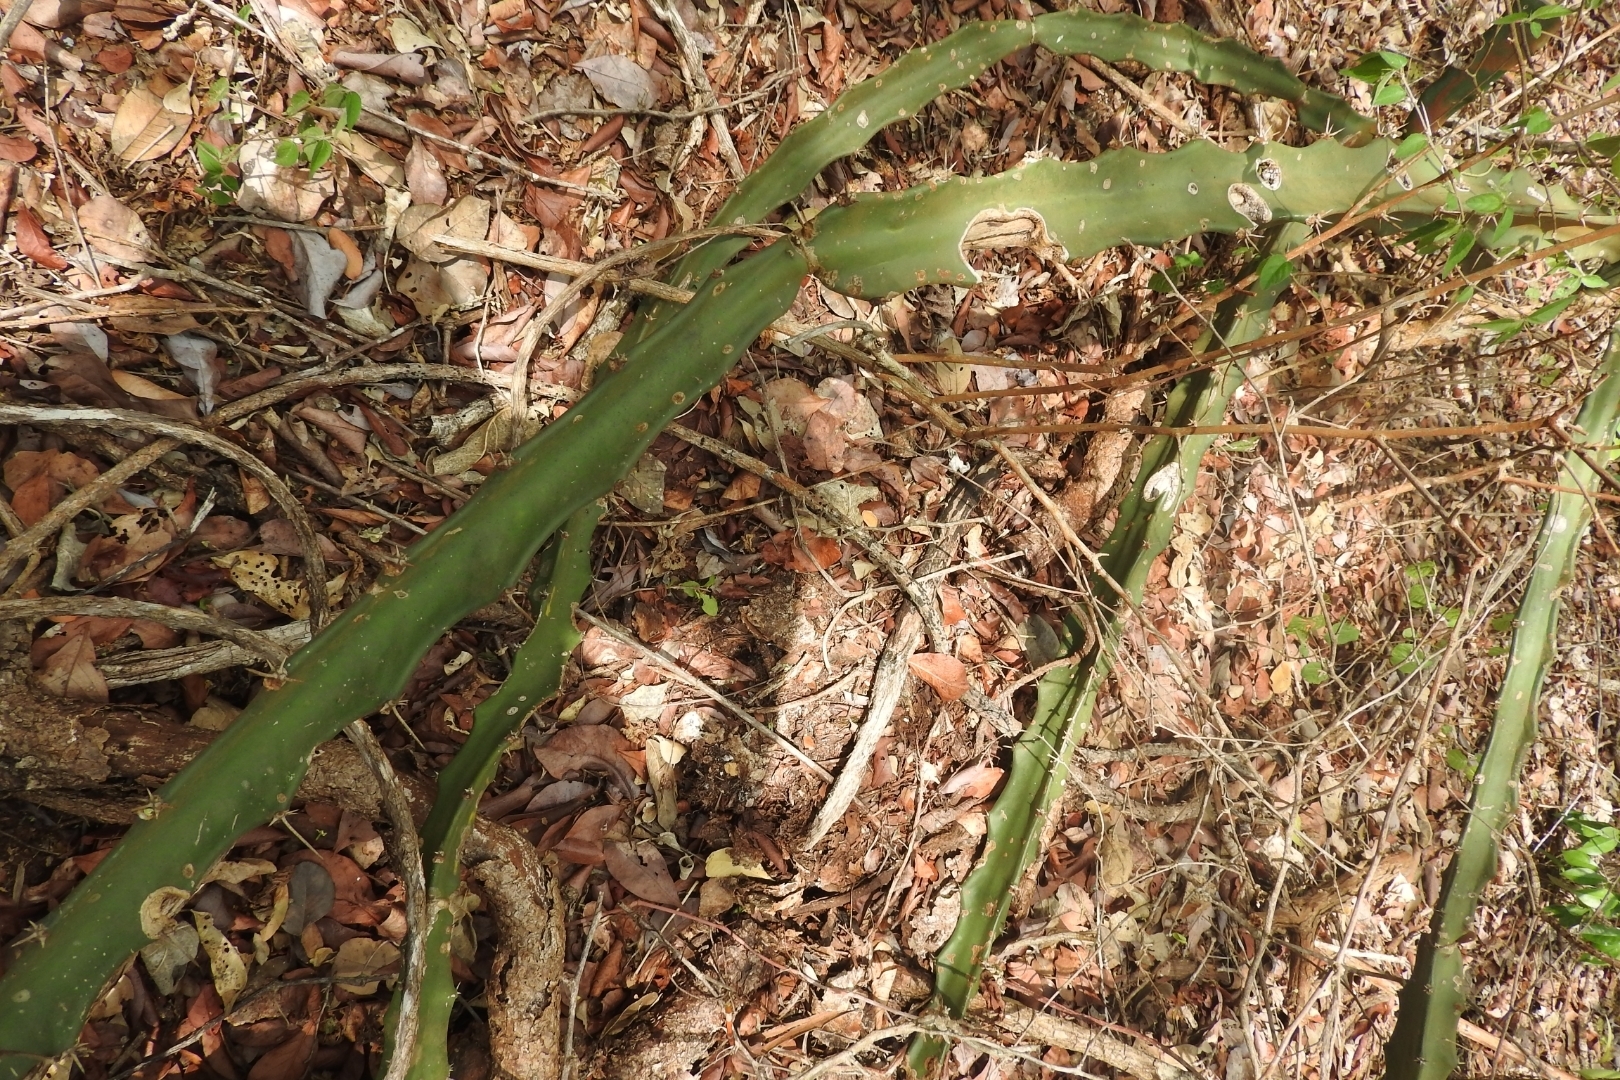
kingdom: Plantae
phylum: Tracheophyta
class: Magnoliopsida
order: Caryophyllales
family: Cactaceae
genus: Acanthocereus
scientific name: Acanthocereus tetragonus
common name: Triangle cactus
